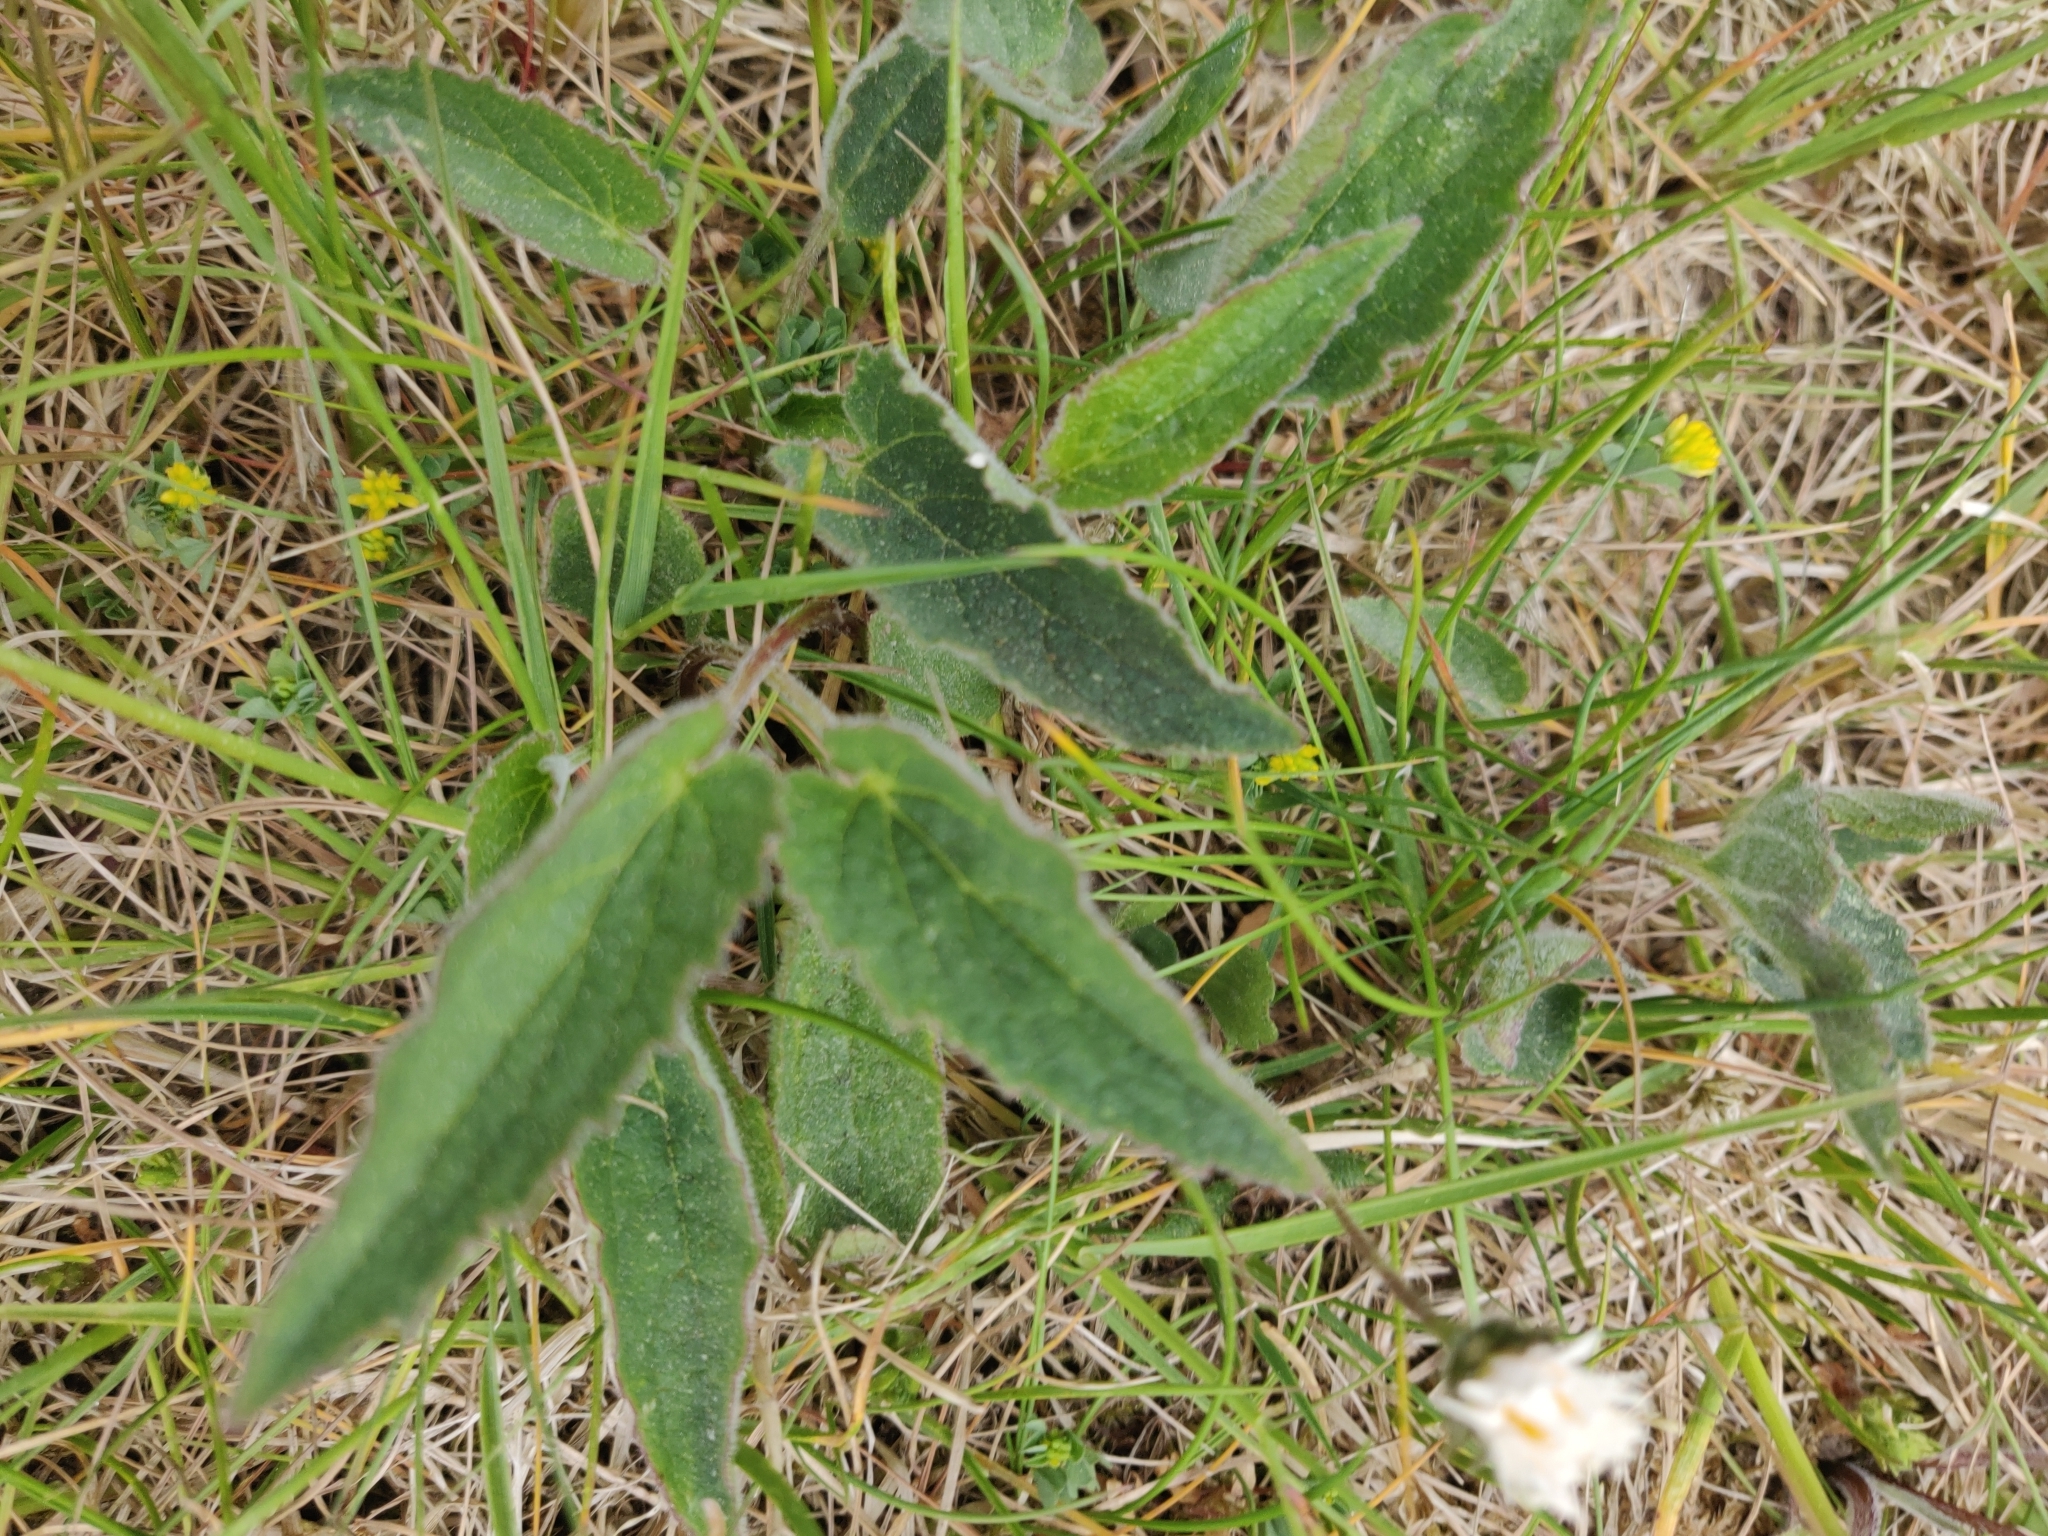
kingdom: Plantae
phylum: Tracheophyta
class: Magnoliopsida
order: Asterales
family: Campanulaceae
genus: Campanula
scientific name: Campanula glomerata
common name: Clustered bellflower
